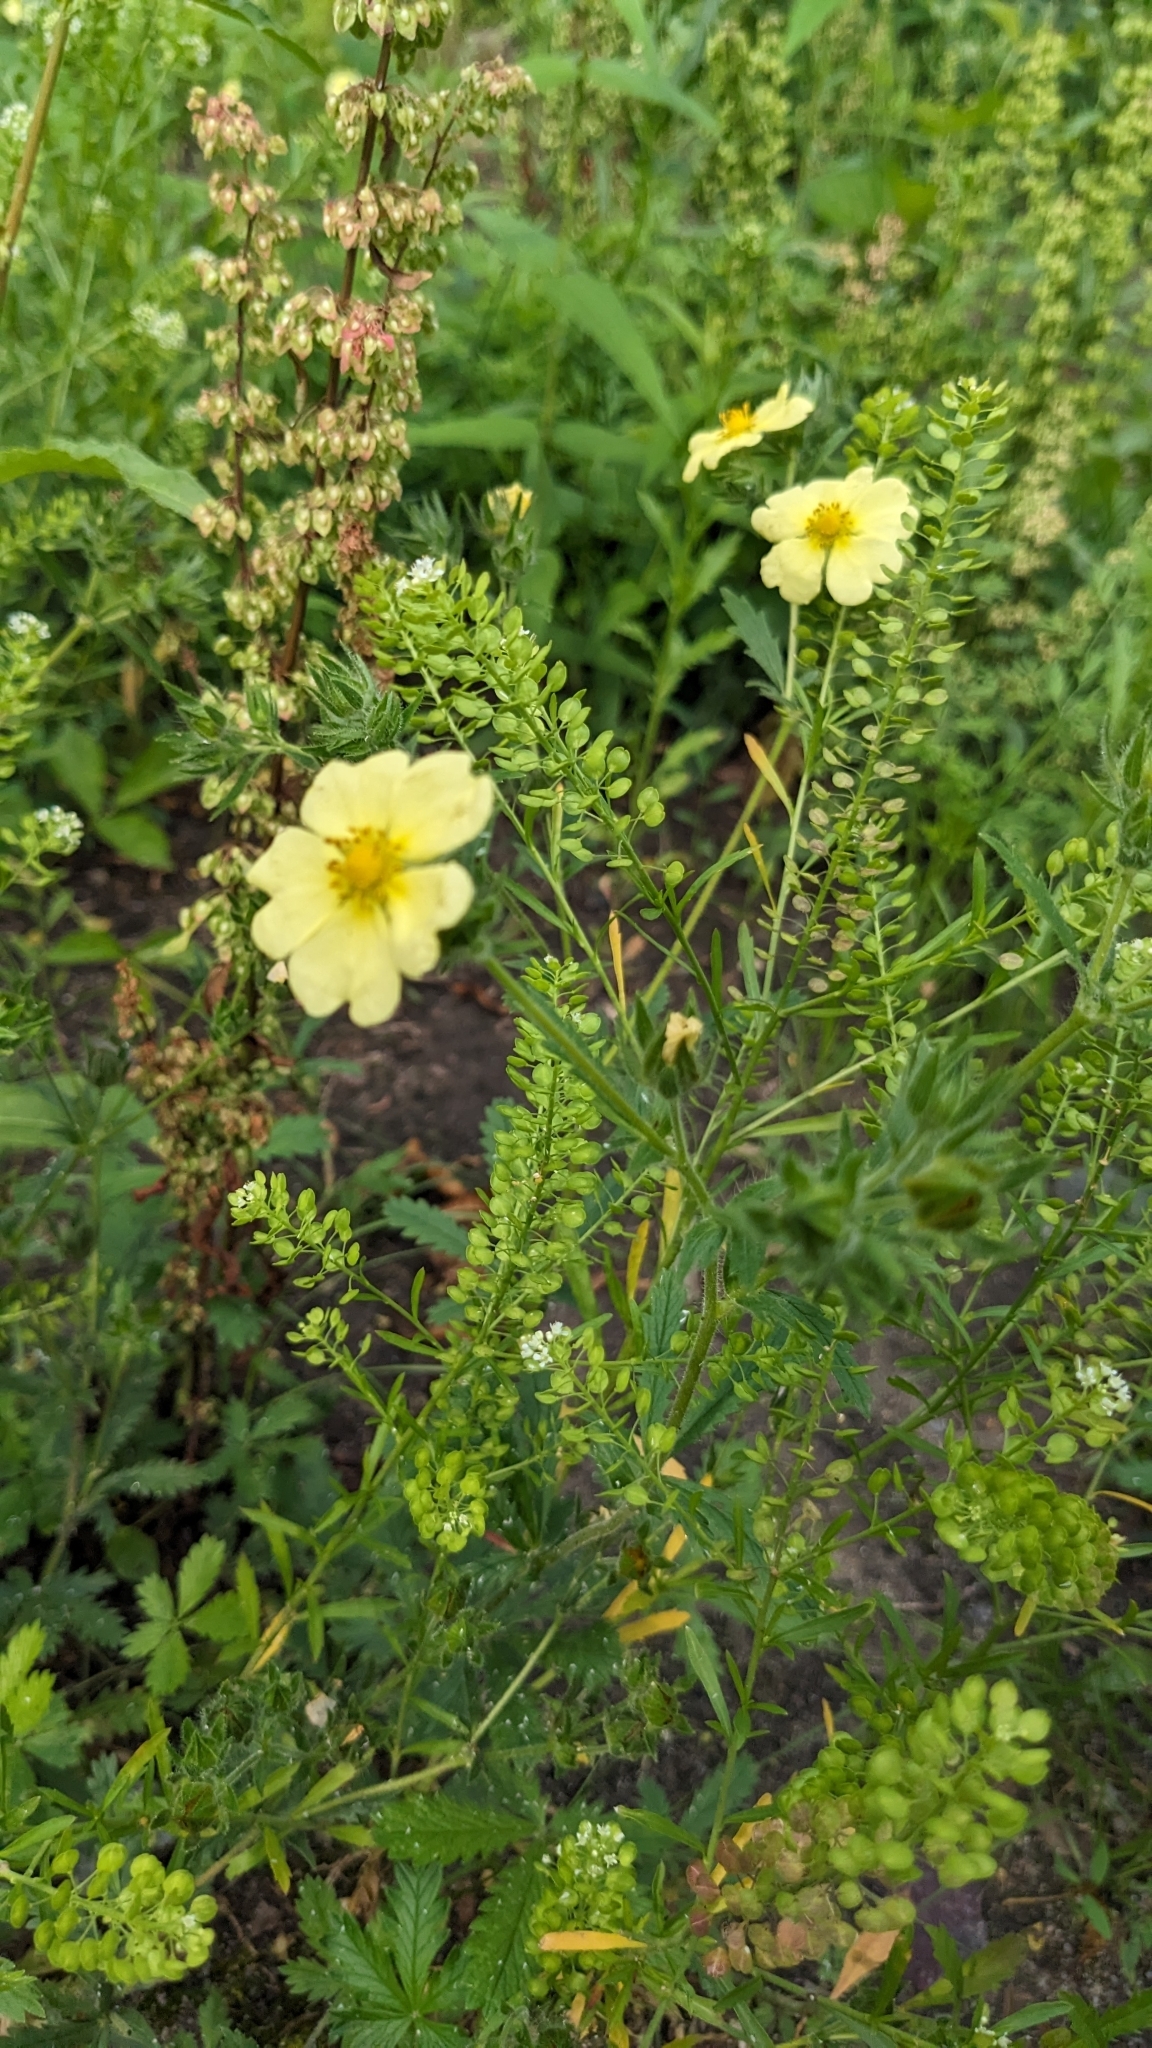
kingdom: Plantae
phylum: Tracheophyta
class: Magnoliopsida
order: Rosales
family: Rosaceae
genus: Potentilla
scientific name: Potentilla recta
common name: Sulphur cinquefoil
